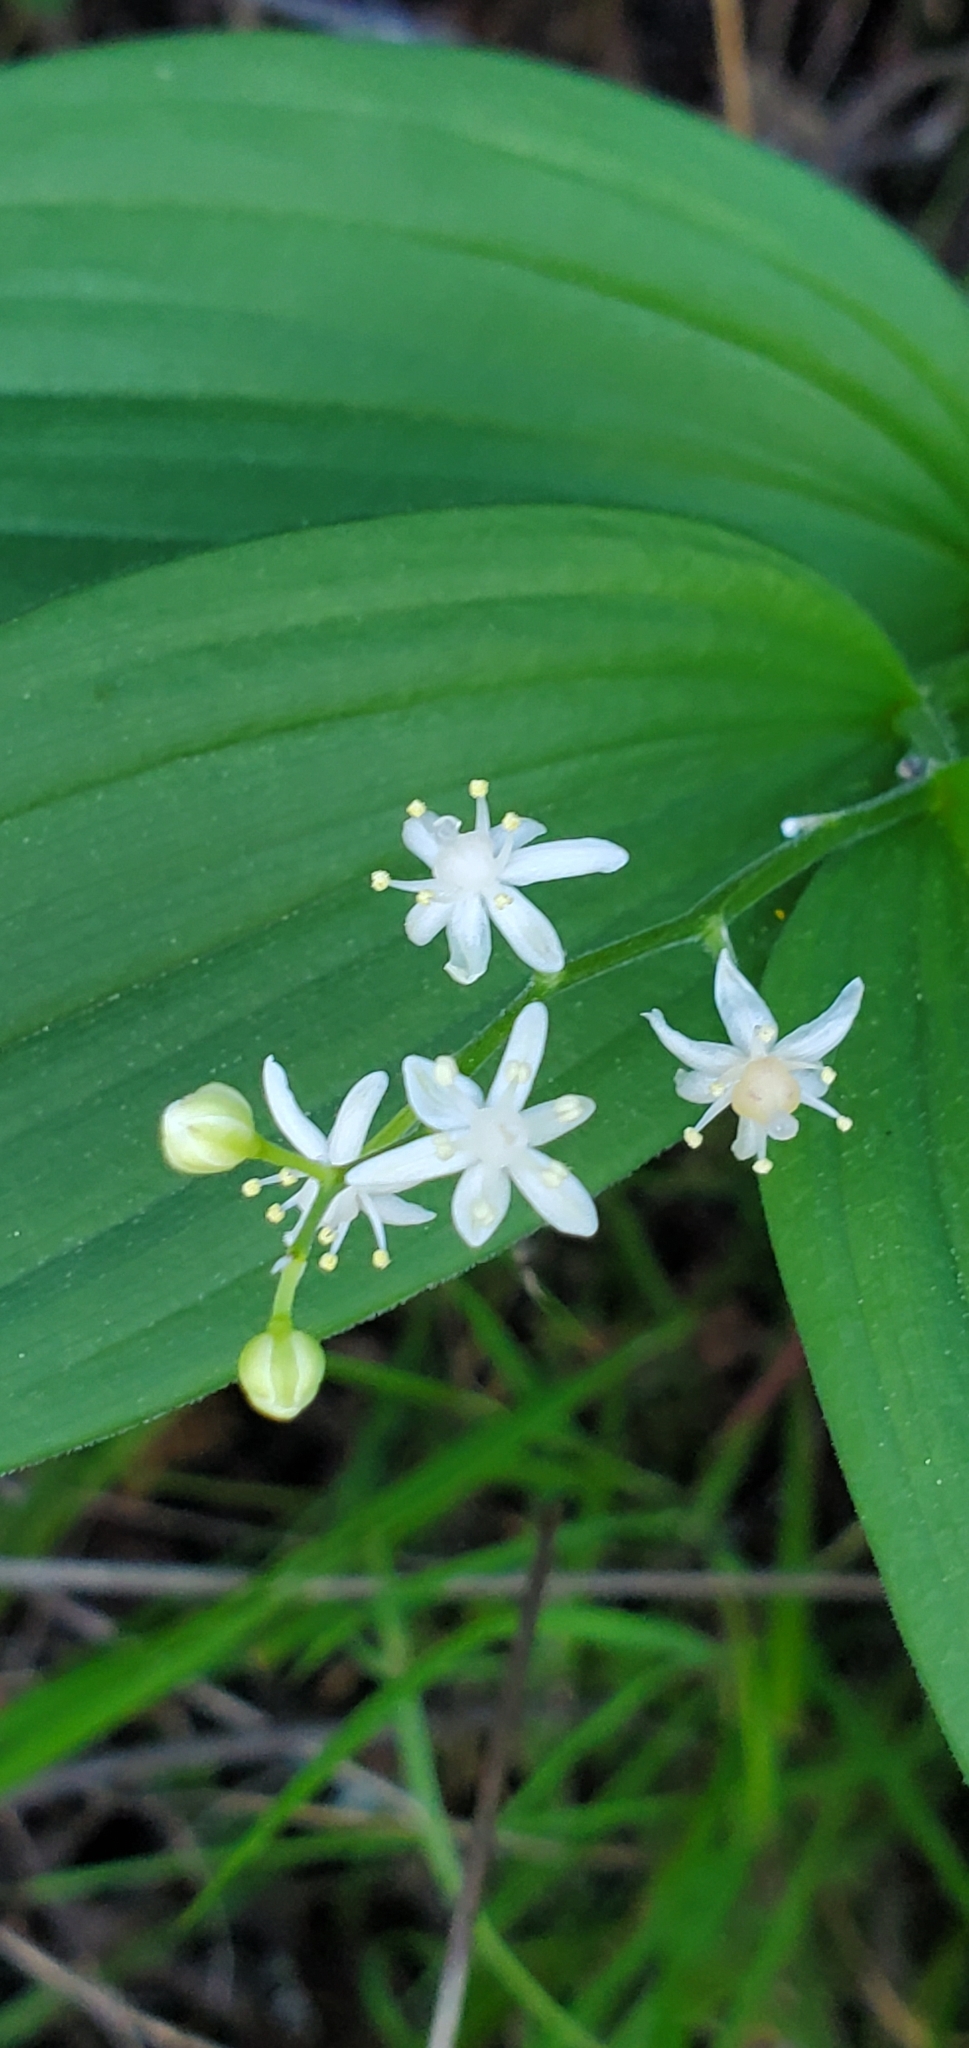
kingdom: Plantae
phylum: Tracheophyta
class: Liliopsida
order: Asparagales
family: Asparagaceae
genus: Maianthemum
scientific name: Maianthemum stellatum
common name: Little false solomon's seal
